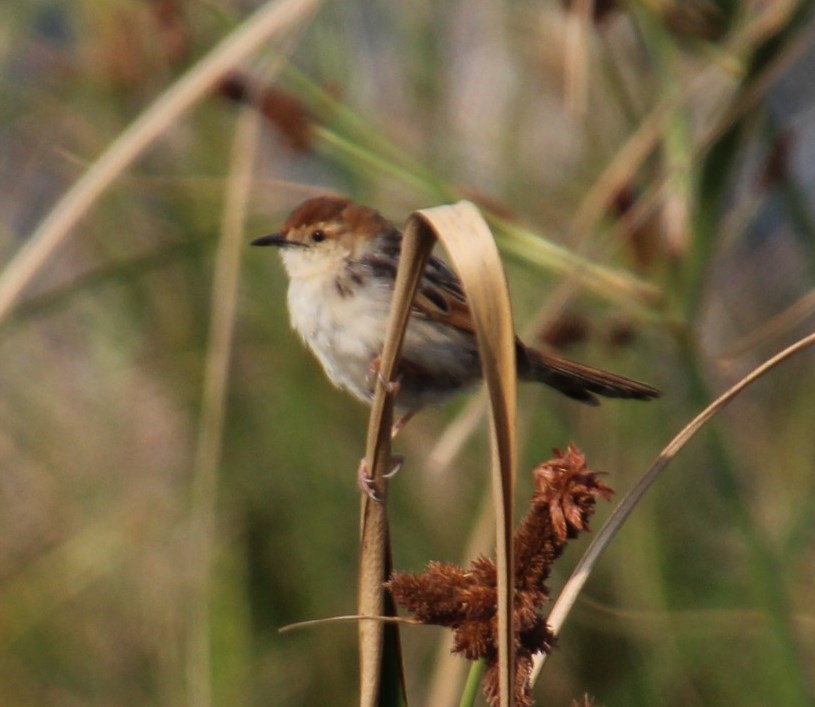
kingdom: Animalia
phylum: Chordata
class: Aves
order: Passeriformes
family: Cisticolidae
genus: Cisticola
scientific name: Cisticola tinniens
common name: Levaillant's cisticola
